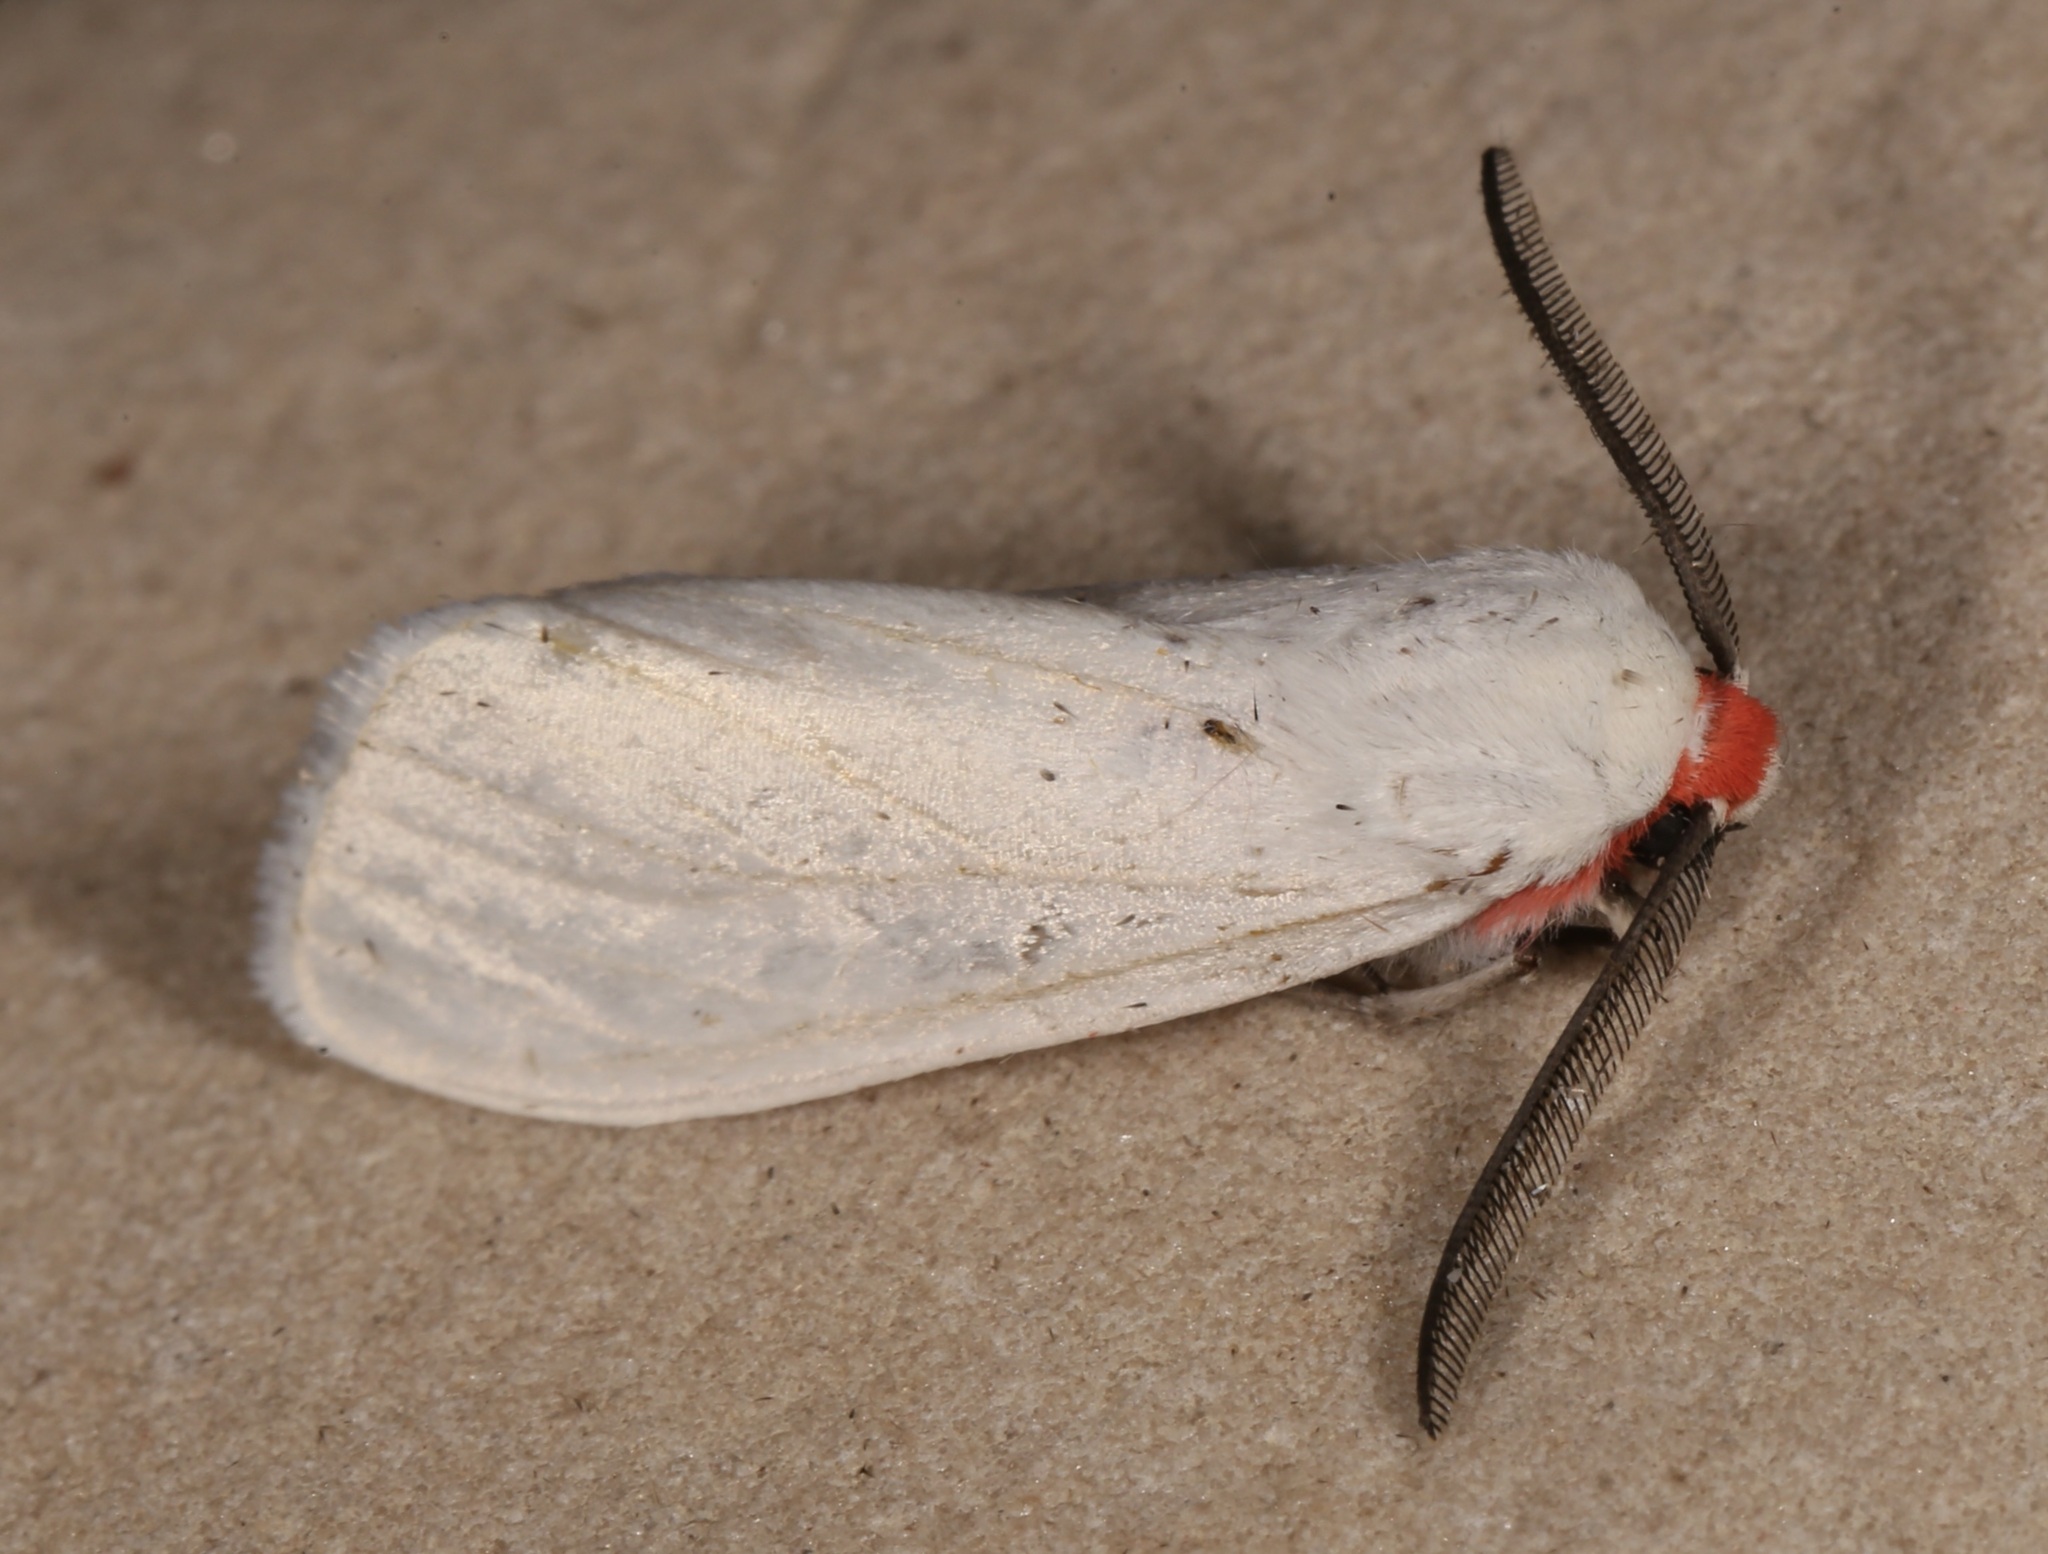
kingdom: Animalia
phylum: Arthropoda
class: Insecta
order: Lepidoptera
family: Erebidae
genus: Pygarctia
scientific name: Pygarctia roseicapitis
